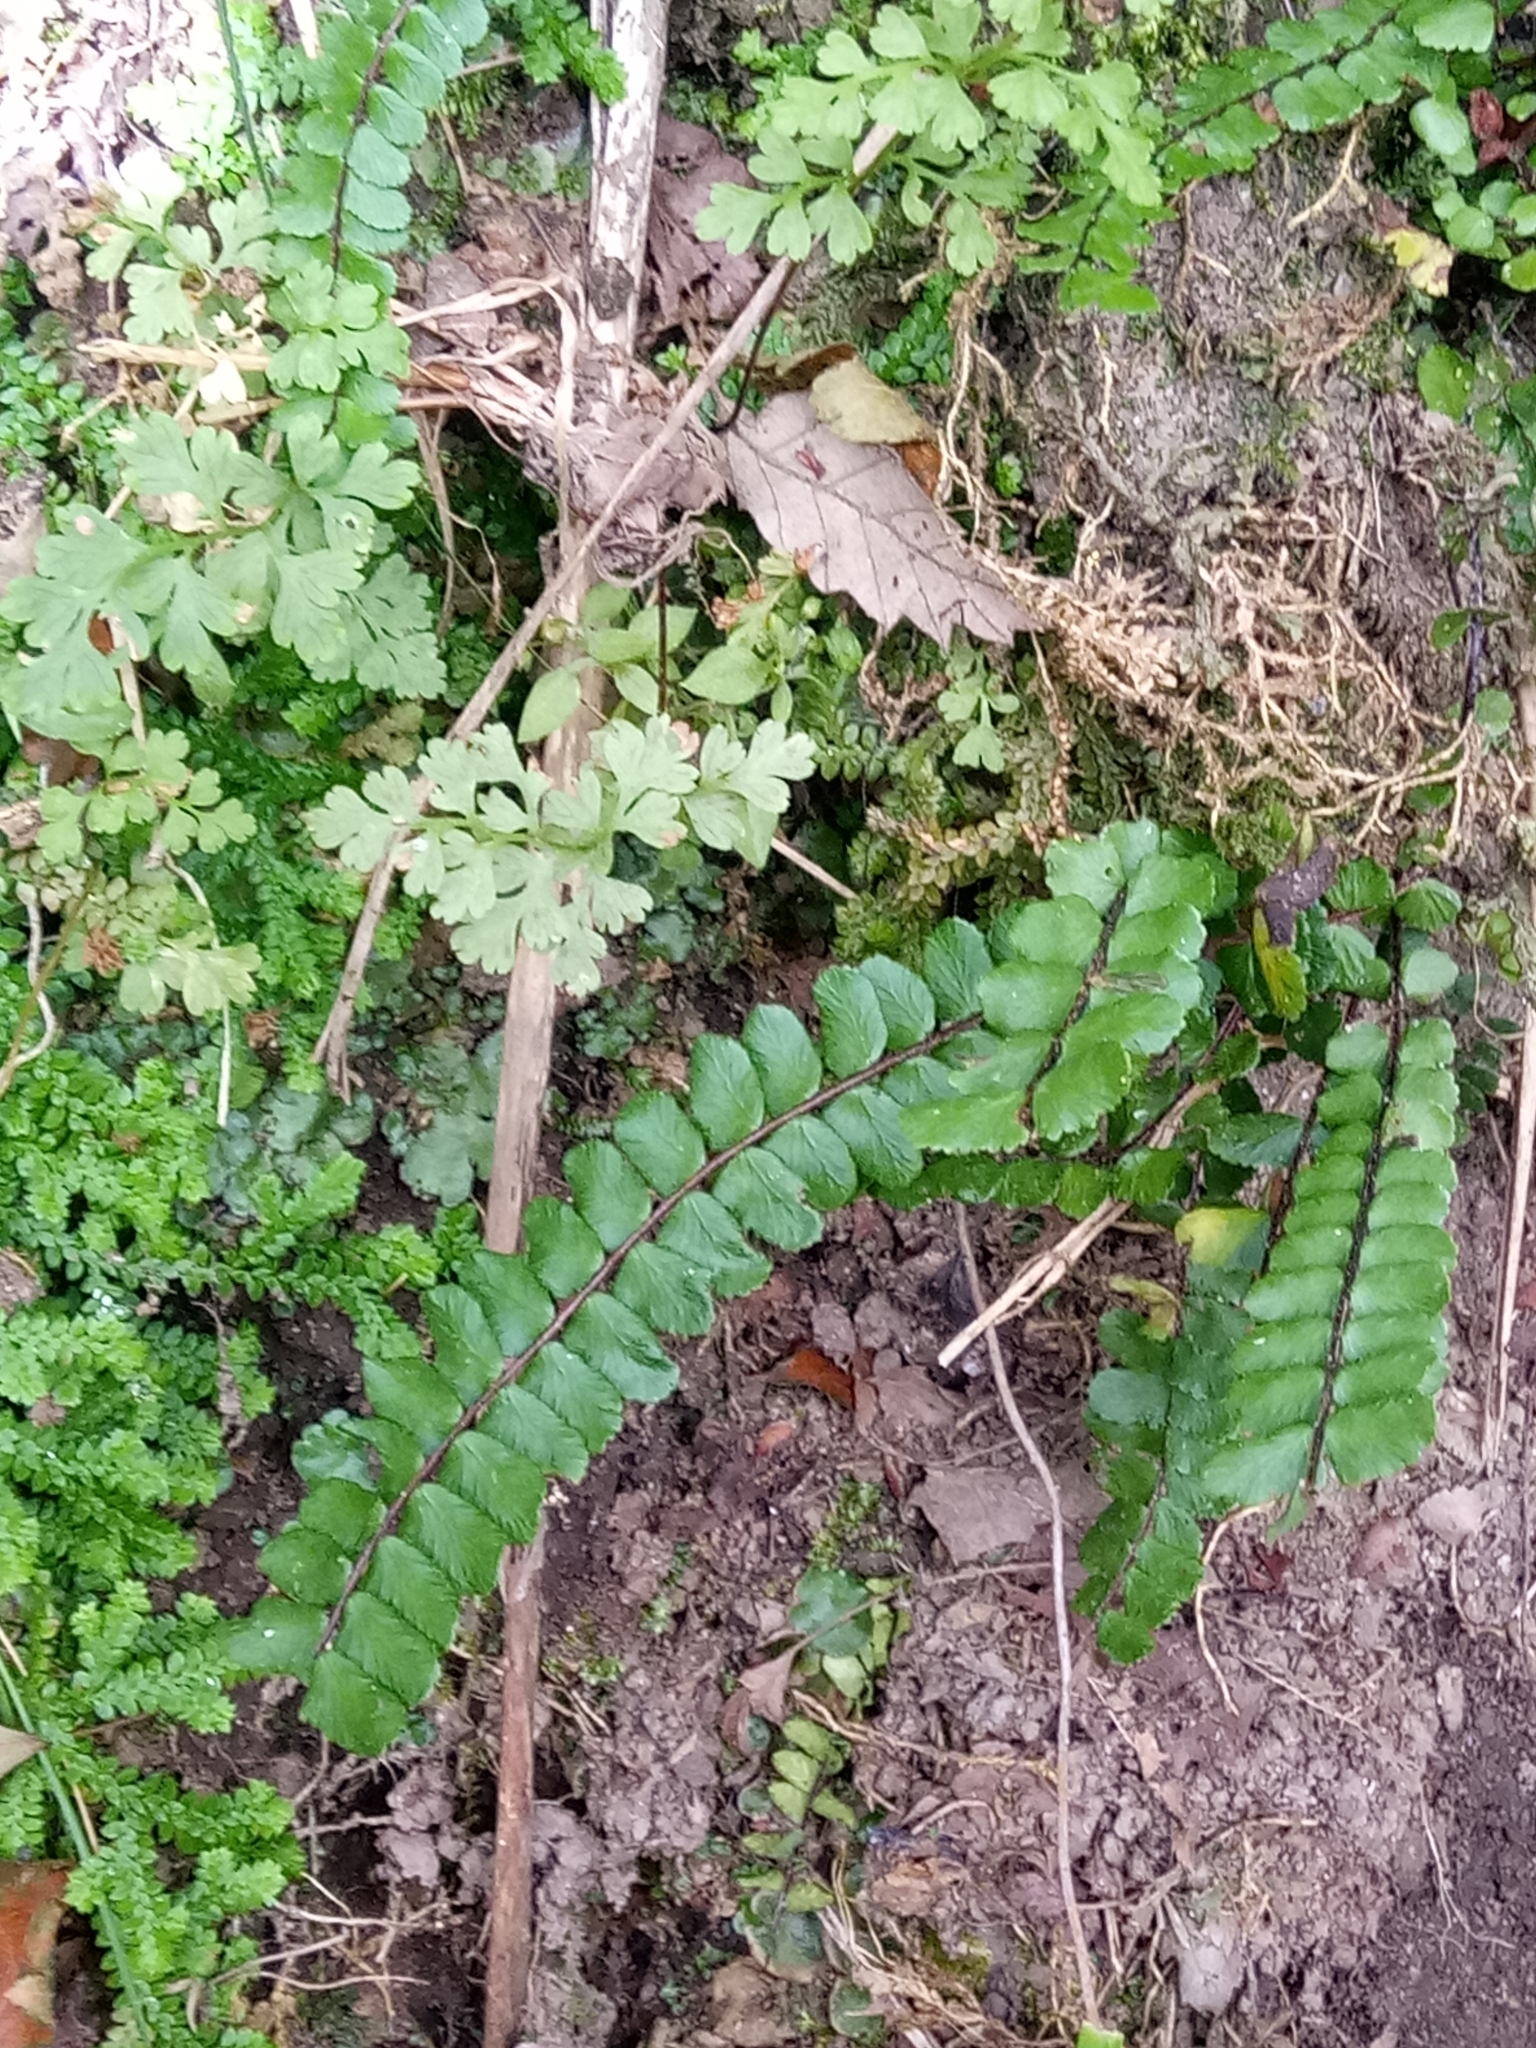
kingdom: Plantae
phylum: Tracheophyta
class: Polypodiopsida
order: Polypodiales
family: Aspleniaceae
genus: Asplenium
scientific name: Asplenium quadrivalens
